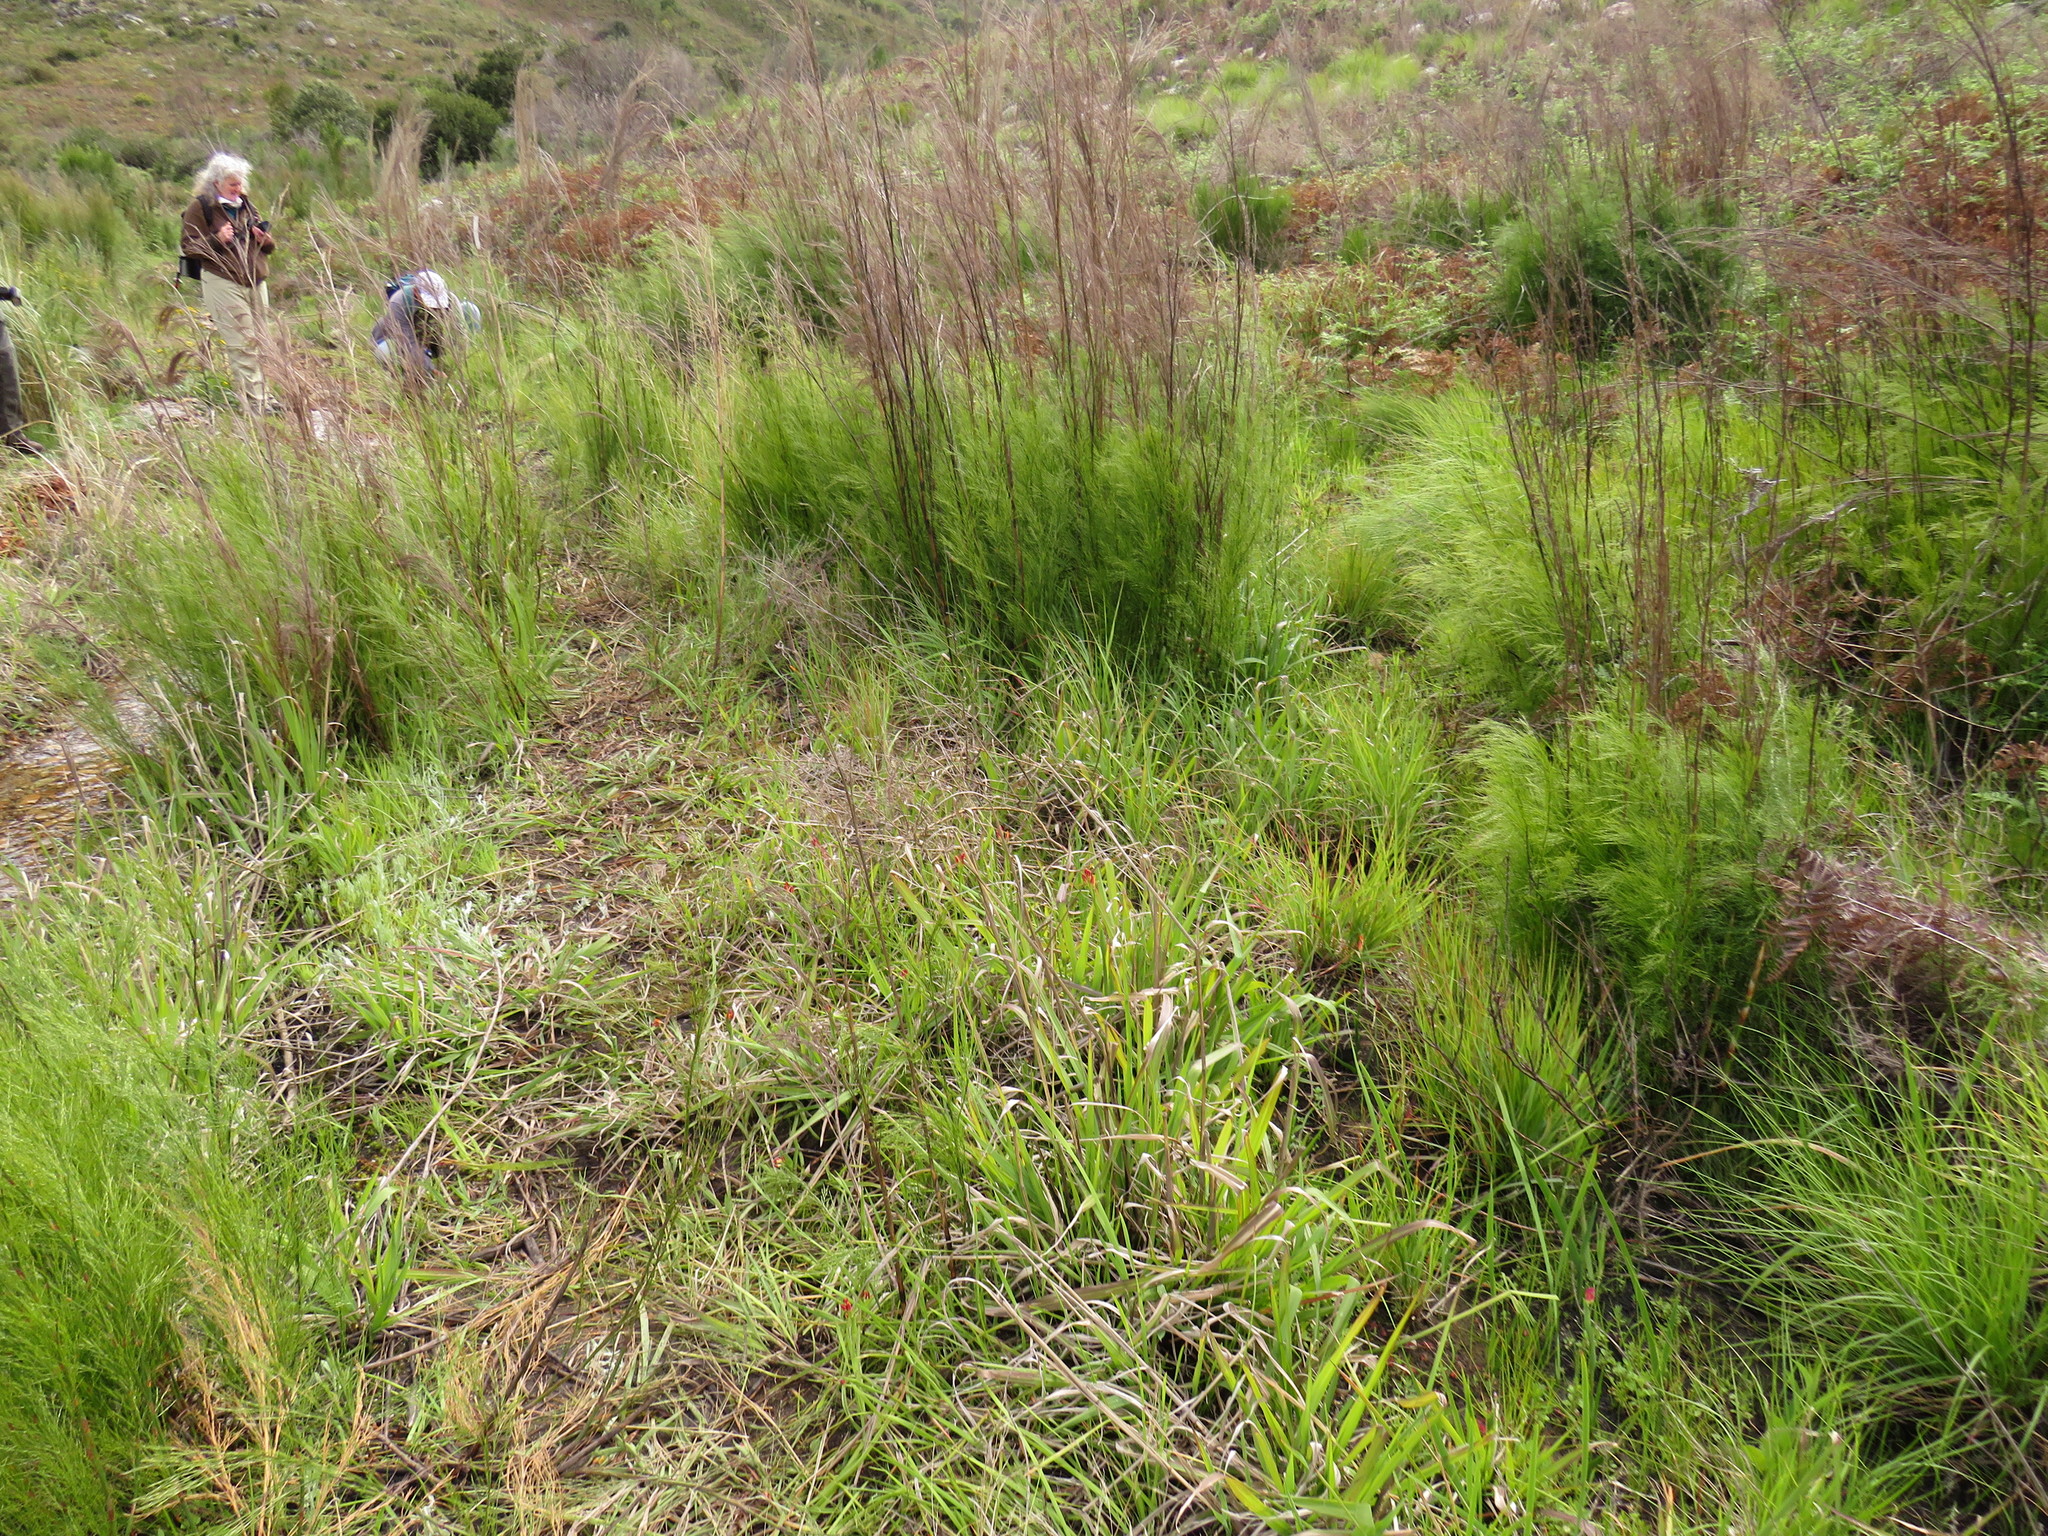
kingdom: Plantae
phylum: Tracheophyta
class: Liliopsida
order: Liliales
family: Colchicaceae
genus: Baeometra
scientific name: Baeometra uniflora
